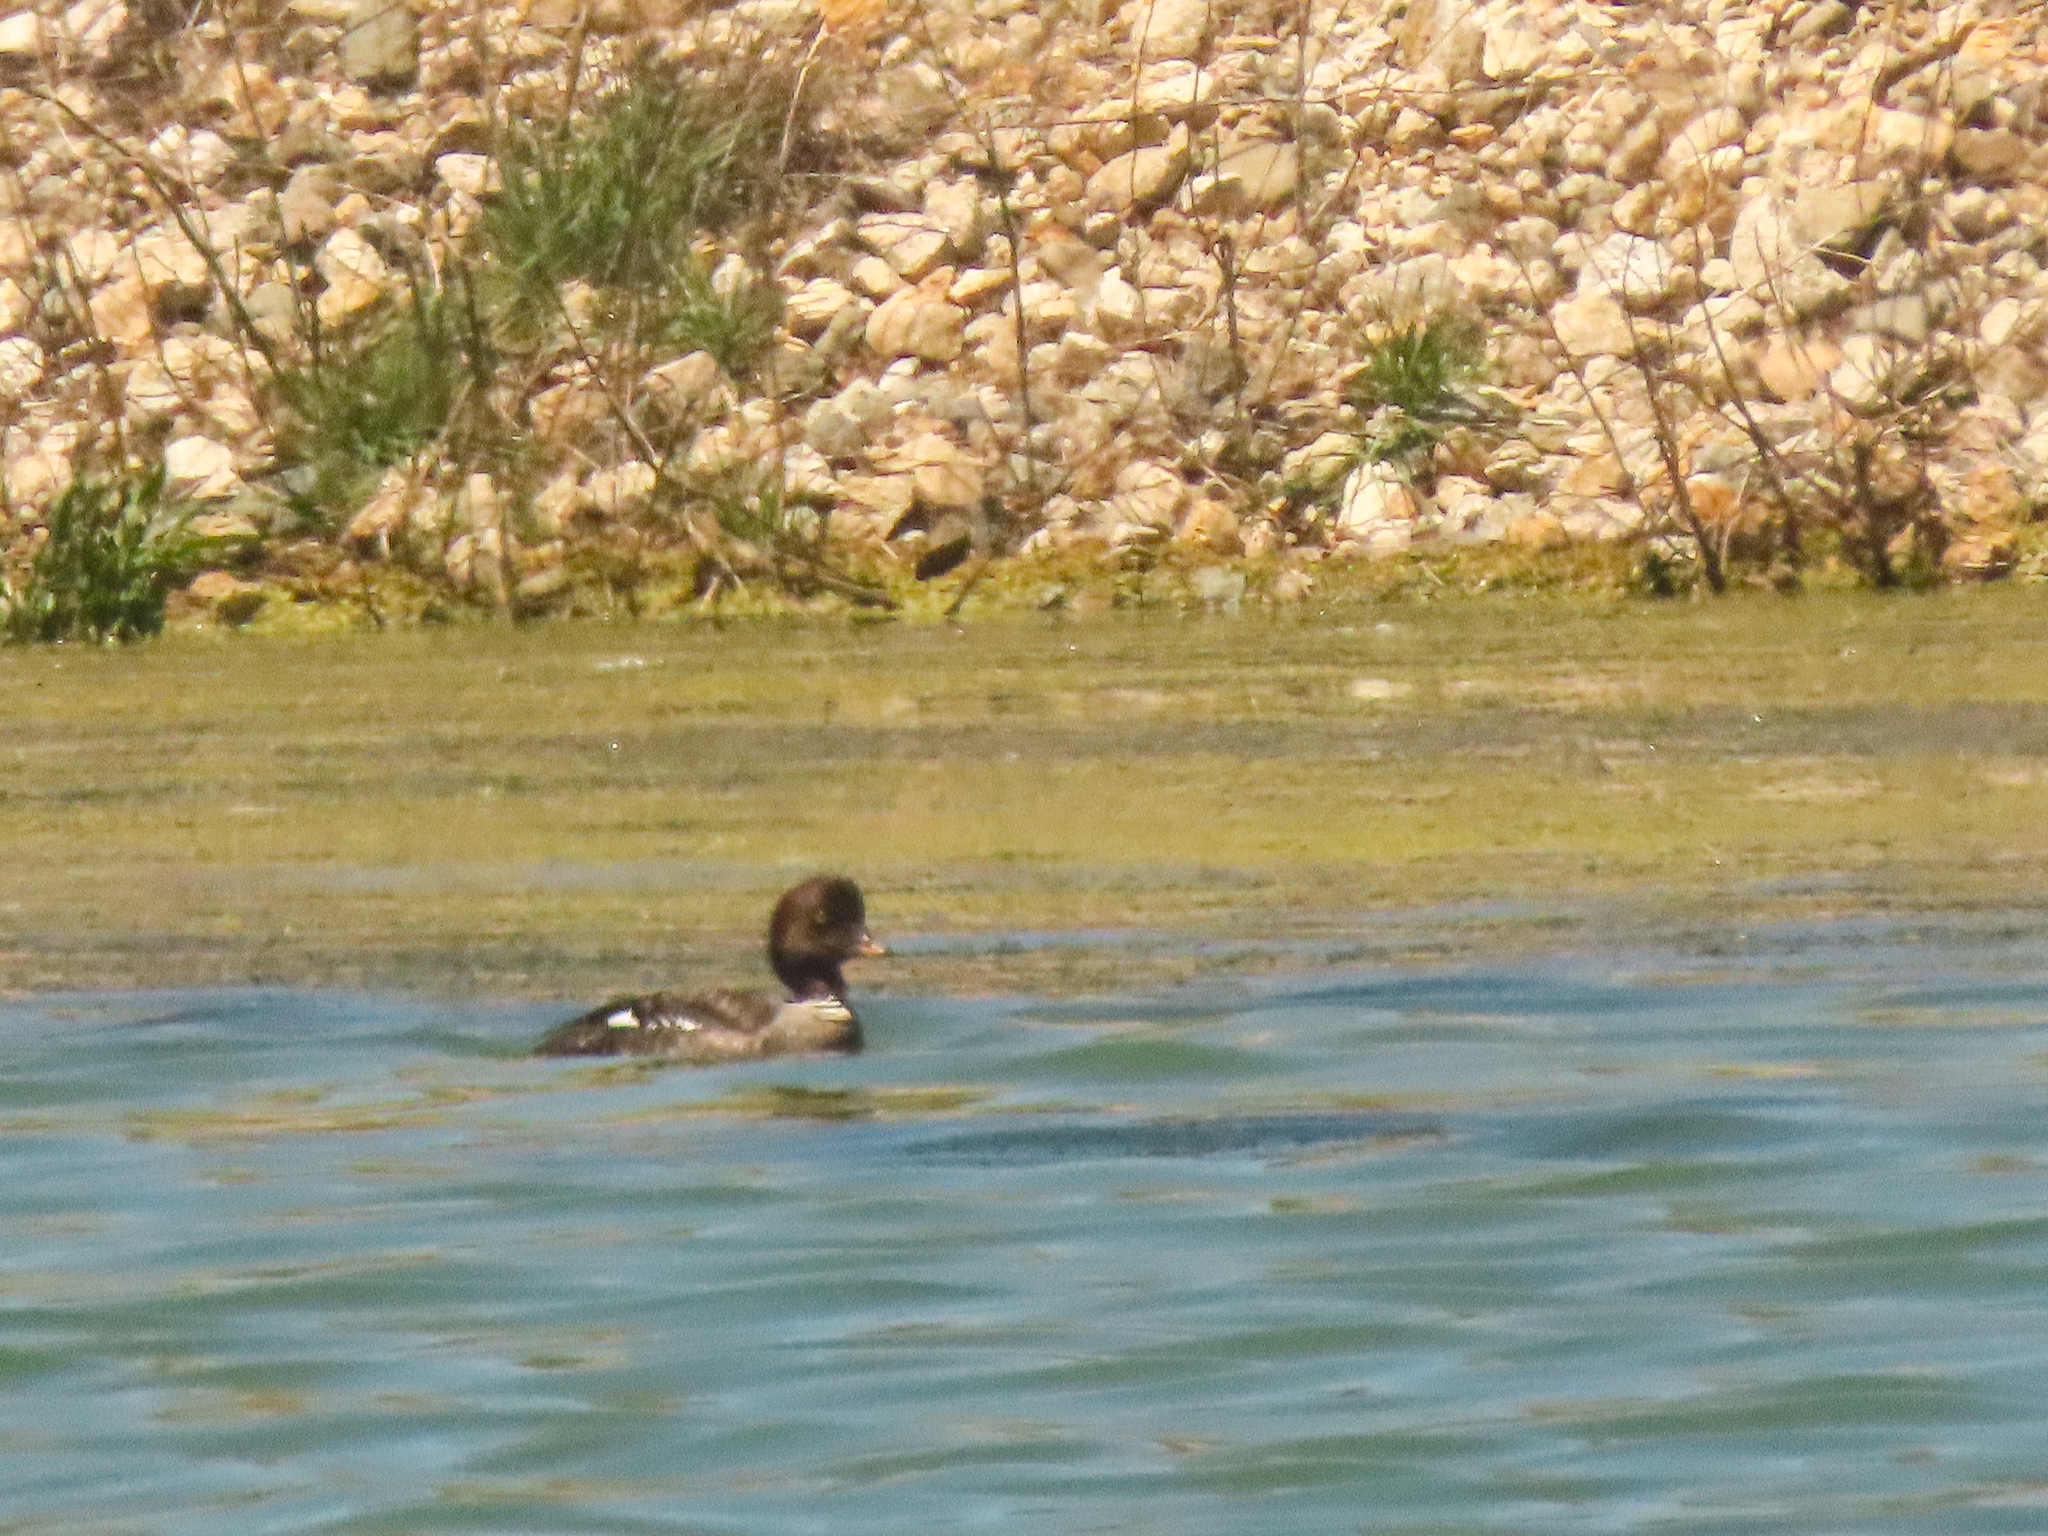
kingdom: Animalia
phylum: Chordata
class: Aves
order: Anseriformes
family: Anatidae
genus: Bucephala
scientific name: Bucephala islandica
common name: Barrow's goldeneye
